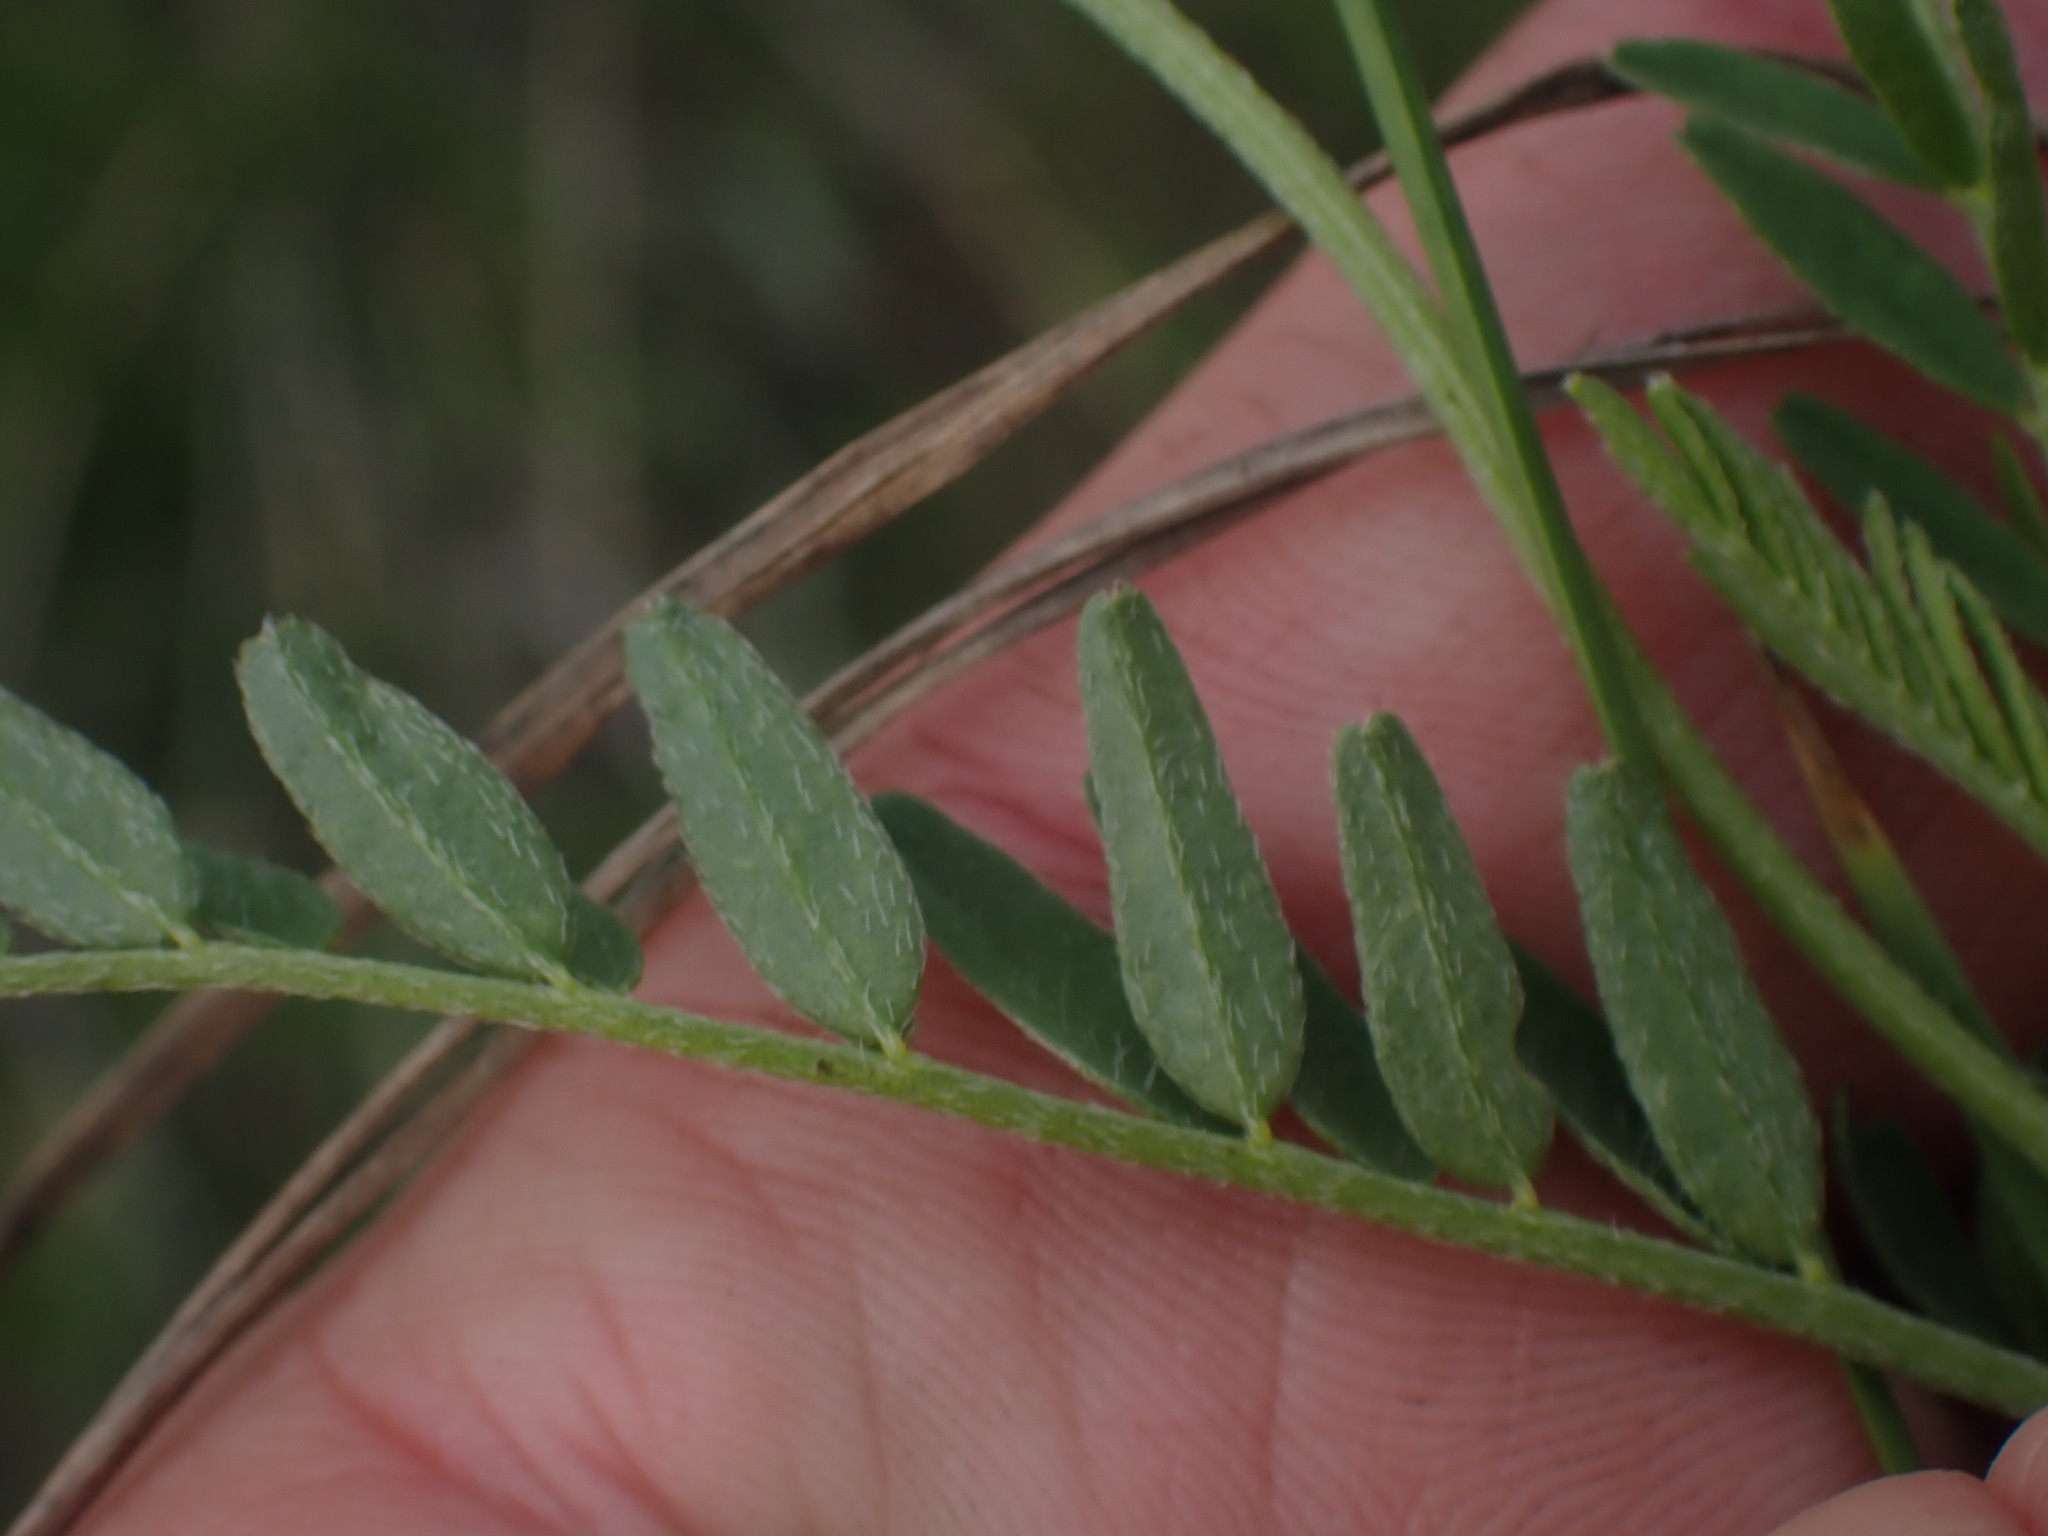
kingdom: Plantae
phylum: Tracheophyta
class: Magnoliopsida
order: Fabales
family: Fabaceae
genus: Astragalus
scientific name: Astragalus agrestis
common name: Field milk-vetch
